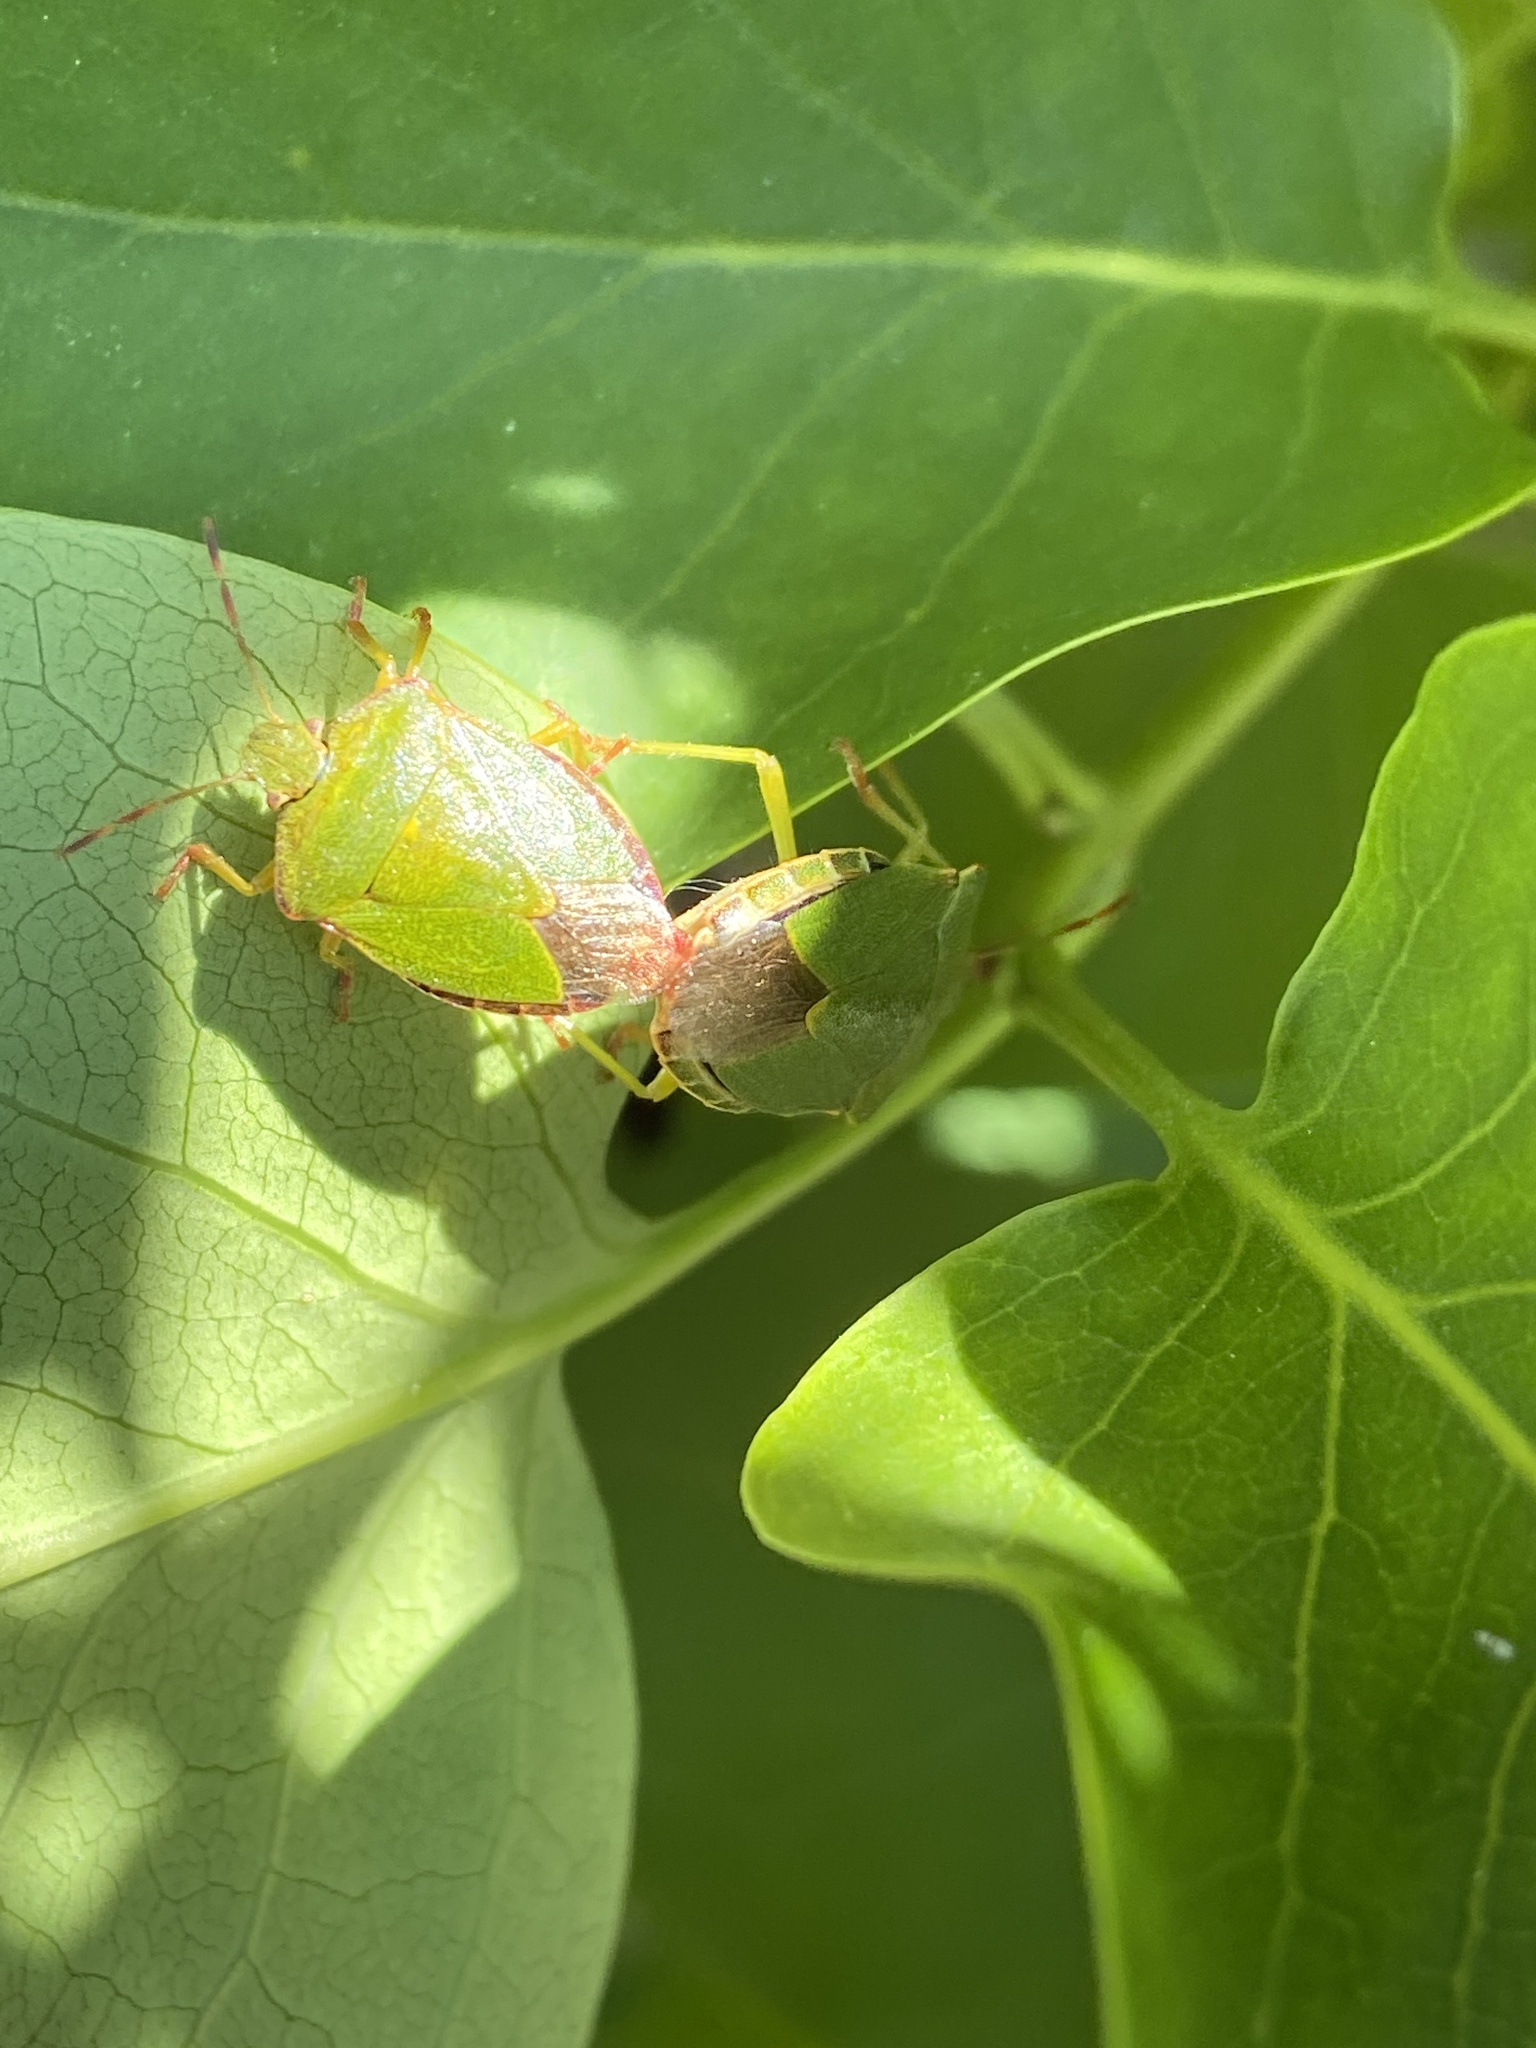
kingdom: Animalia
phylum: Arthropoda
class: Insecta
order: Hemiptera
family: Pentatomidae
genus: Palomena
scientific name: Palomena prasina
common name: Green shieldbug
